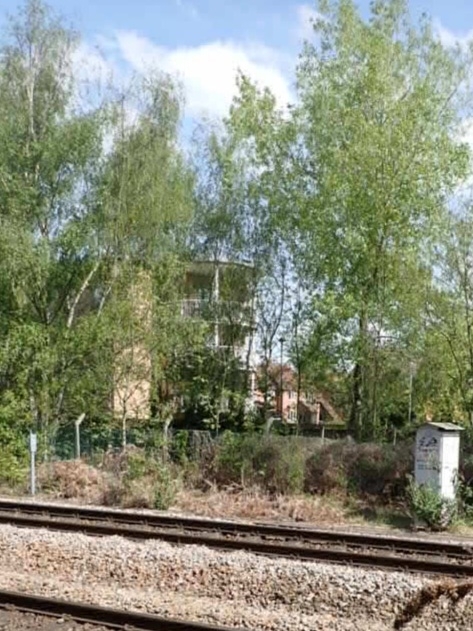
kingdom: Plantae
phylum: Tracheophyta
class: Polypodiopsida
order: Polypodiales
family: Dennstaedtiaceae
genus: Pteridium
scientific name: Pteridium aquilinum
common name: Bracken
